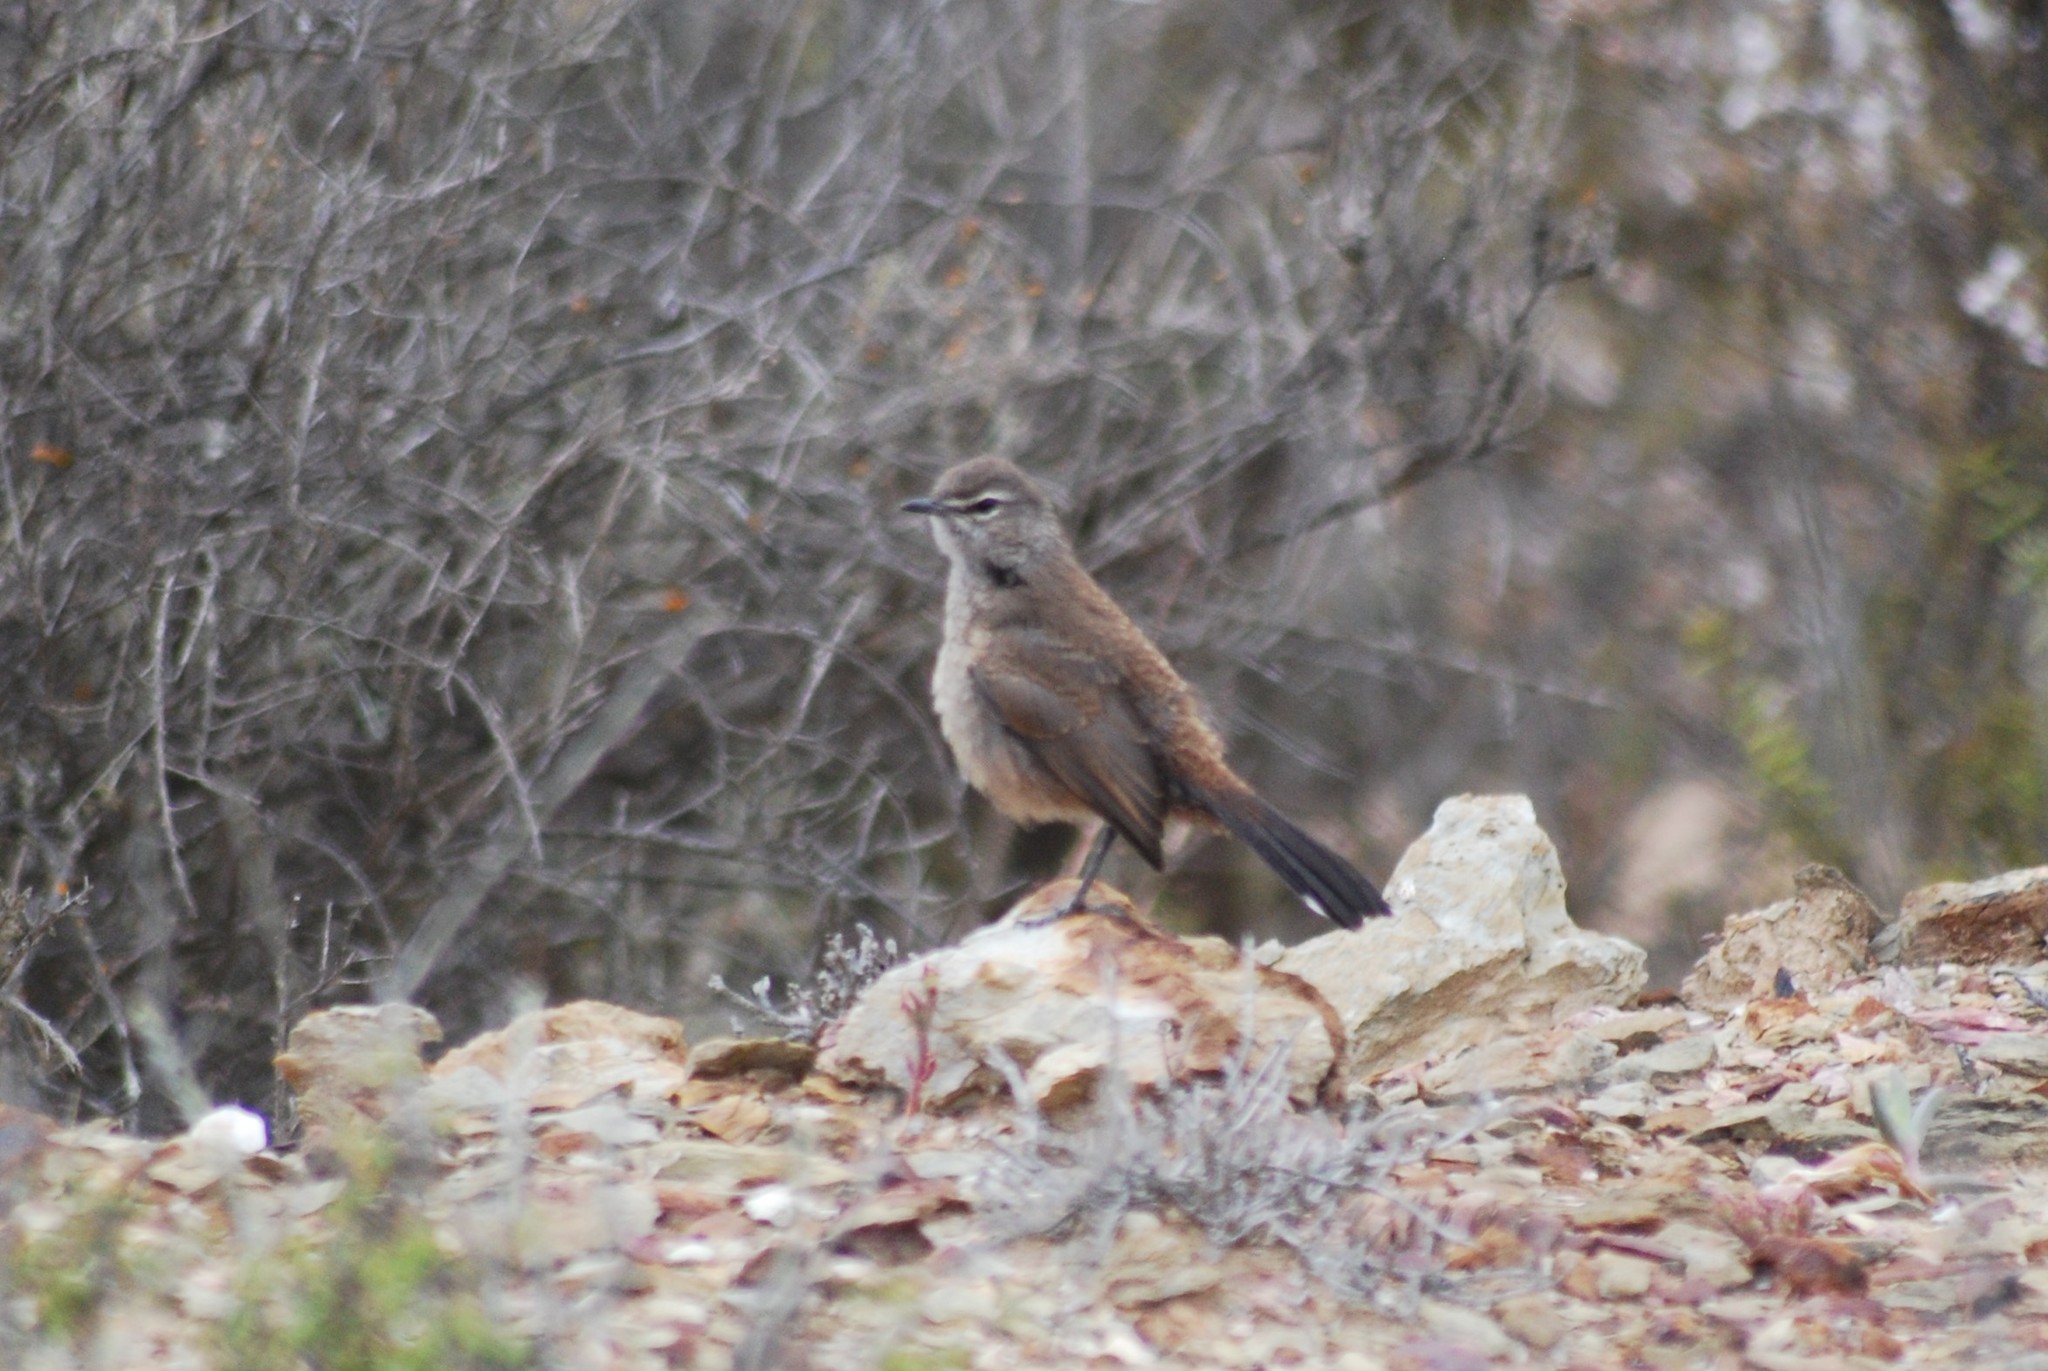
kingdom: Animalia
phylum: Chordata
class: Aves
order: Passeriformes
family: Muscicapidae
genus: Erythropygia
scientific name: Erythropygia coryphoeus
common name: Karoo scrub robin
